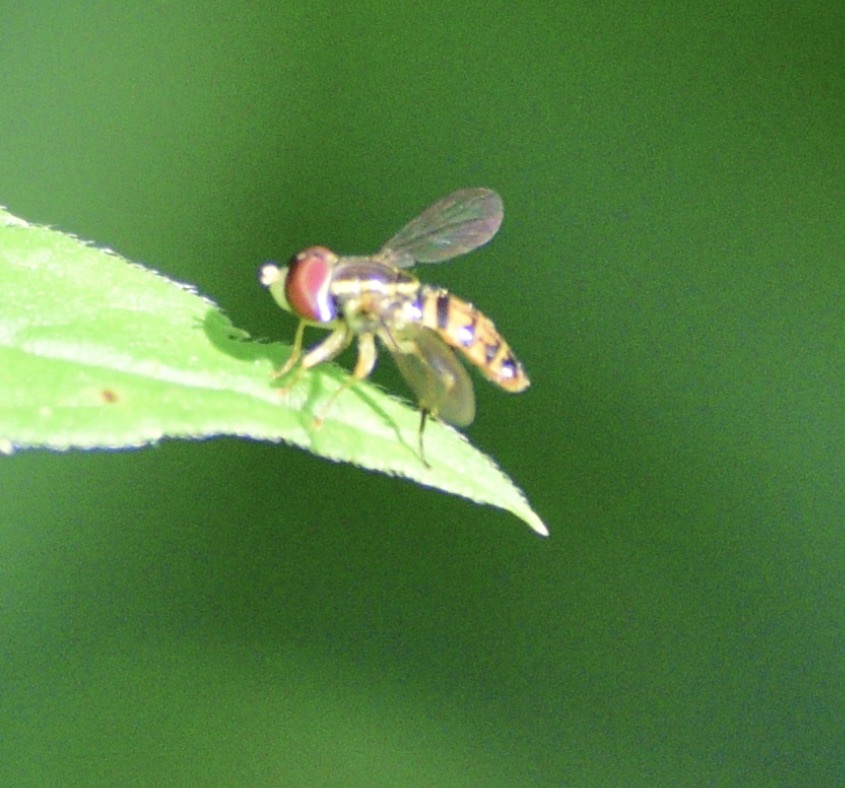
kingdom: Animalia
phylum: Arthropoda
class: Insecta
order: Diptera
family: Syrphidae
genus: Toxomerus
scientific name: Toxomerus geminatus
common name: Eastern calligrapher
